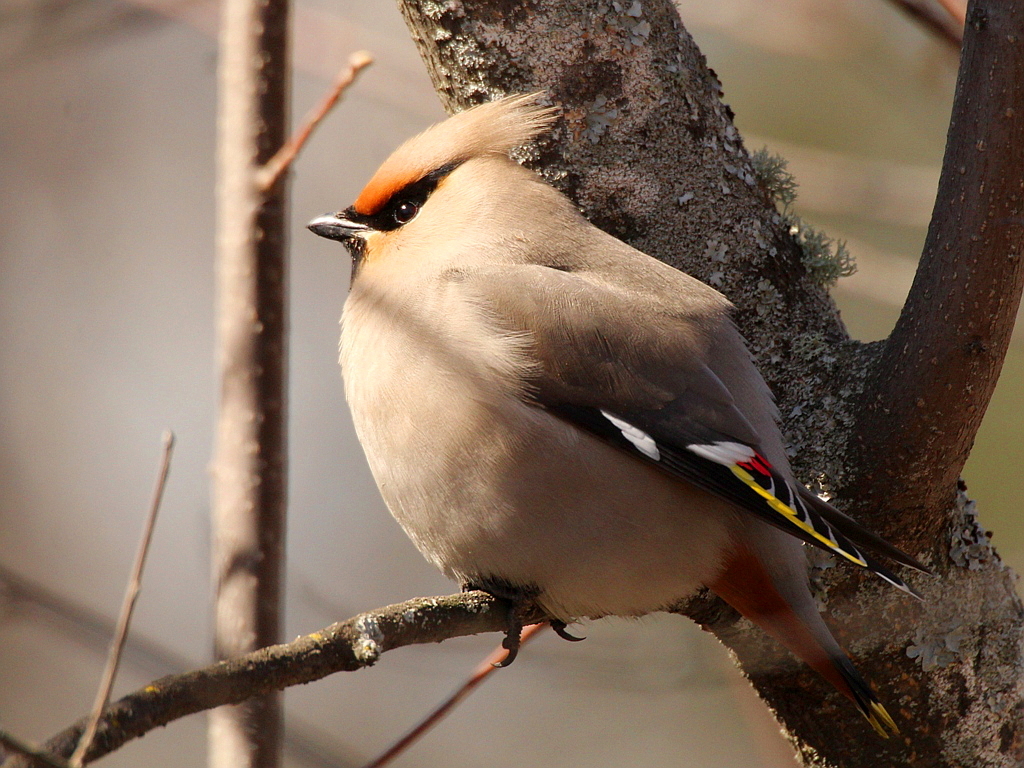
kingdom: Animalia
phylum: Chordata
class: Aves
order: Passeriformes
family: Bombycillidae
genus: Bombycilla
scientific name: Bombycilla garrulus
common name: Bohemian waxwing
